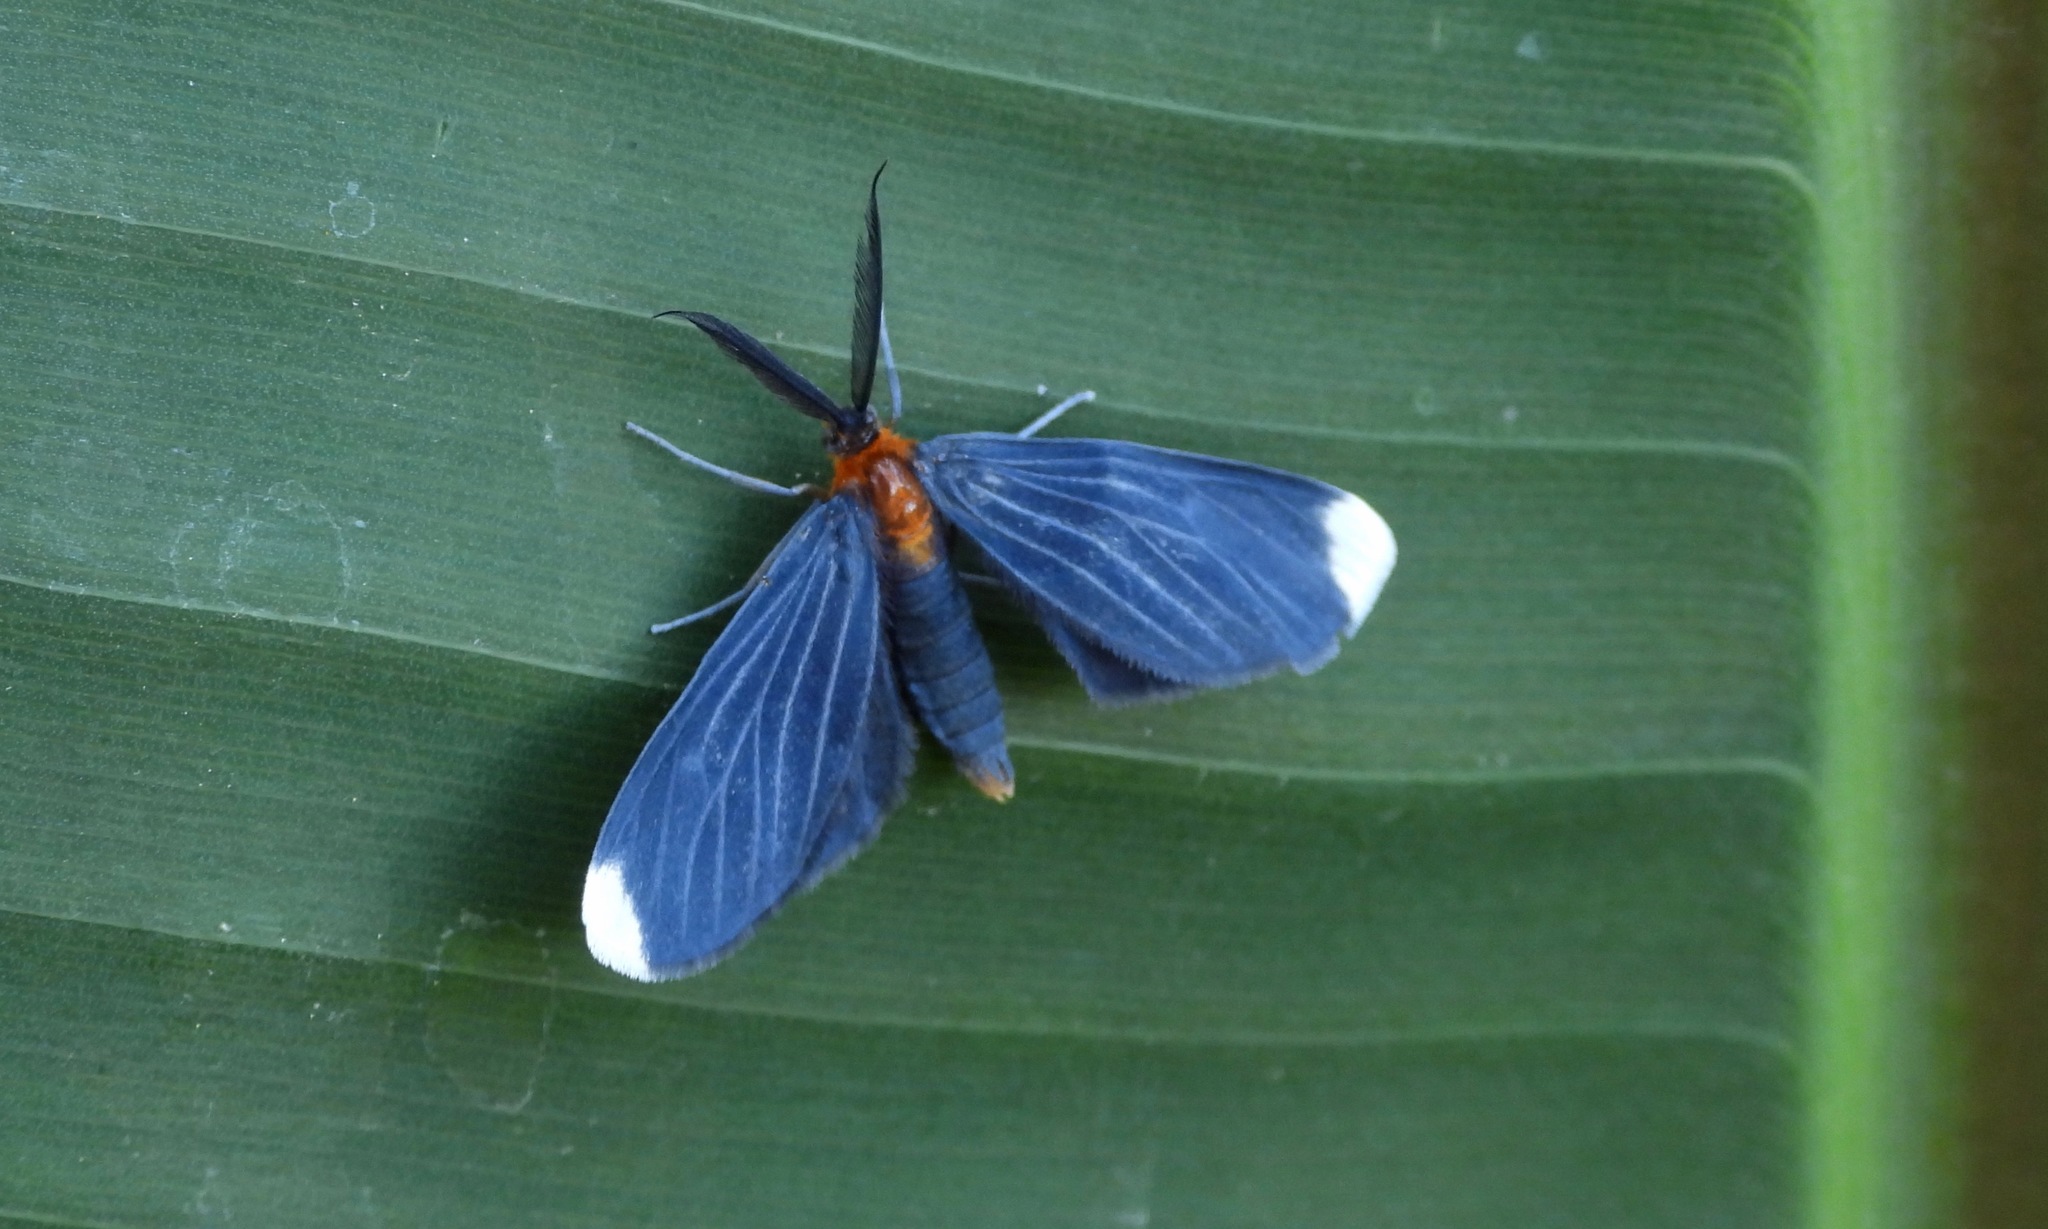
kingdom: Animalia
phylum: Arthropoda
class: Insecta
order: Lepidoptera
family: Geometridae
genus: Melanchroia
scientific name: Melanchroia chephise
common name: White-tipped black
